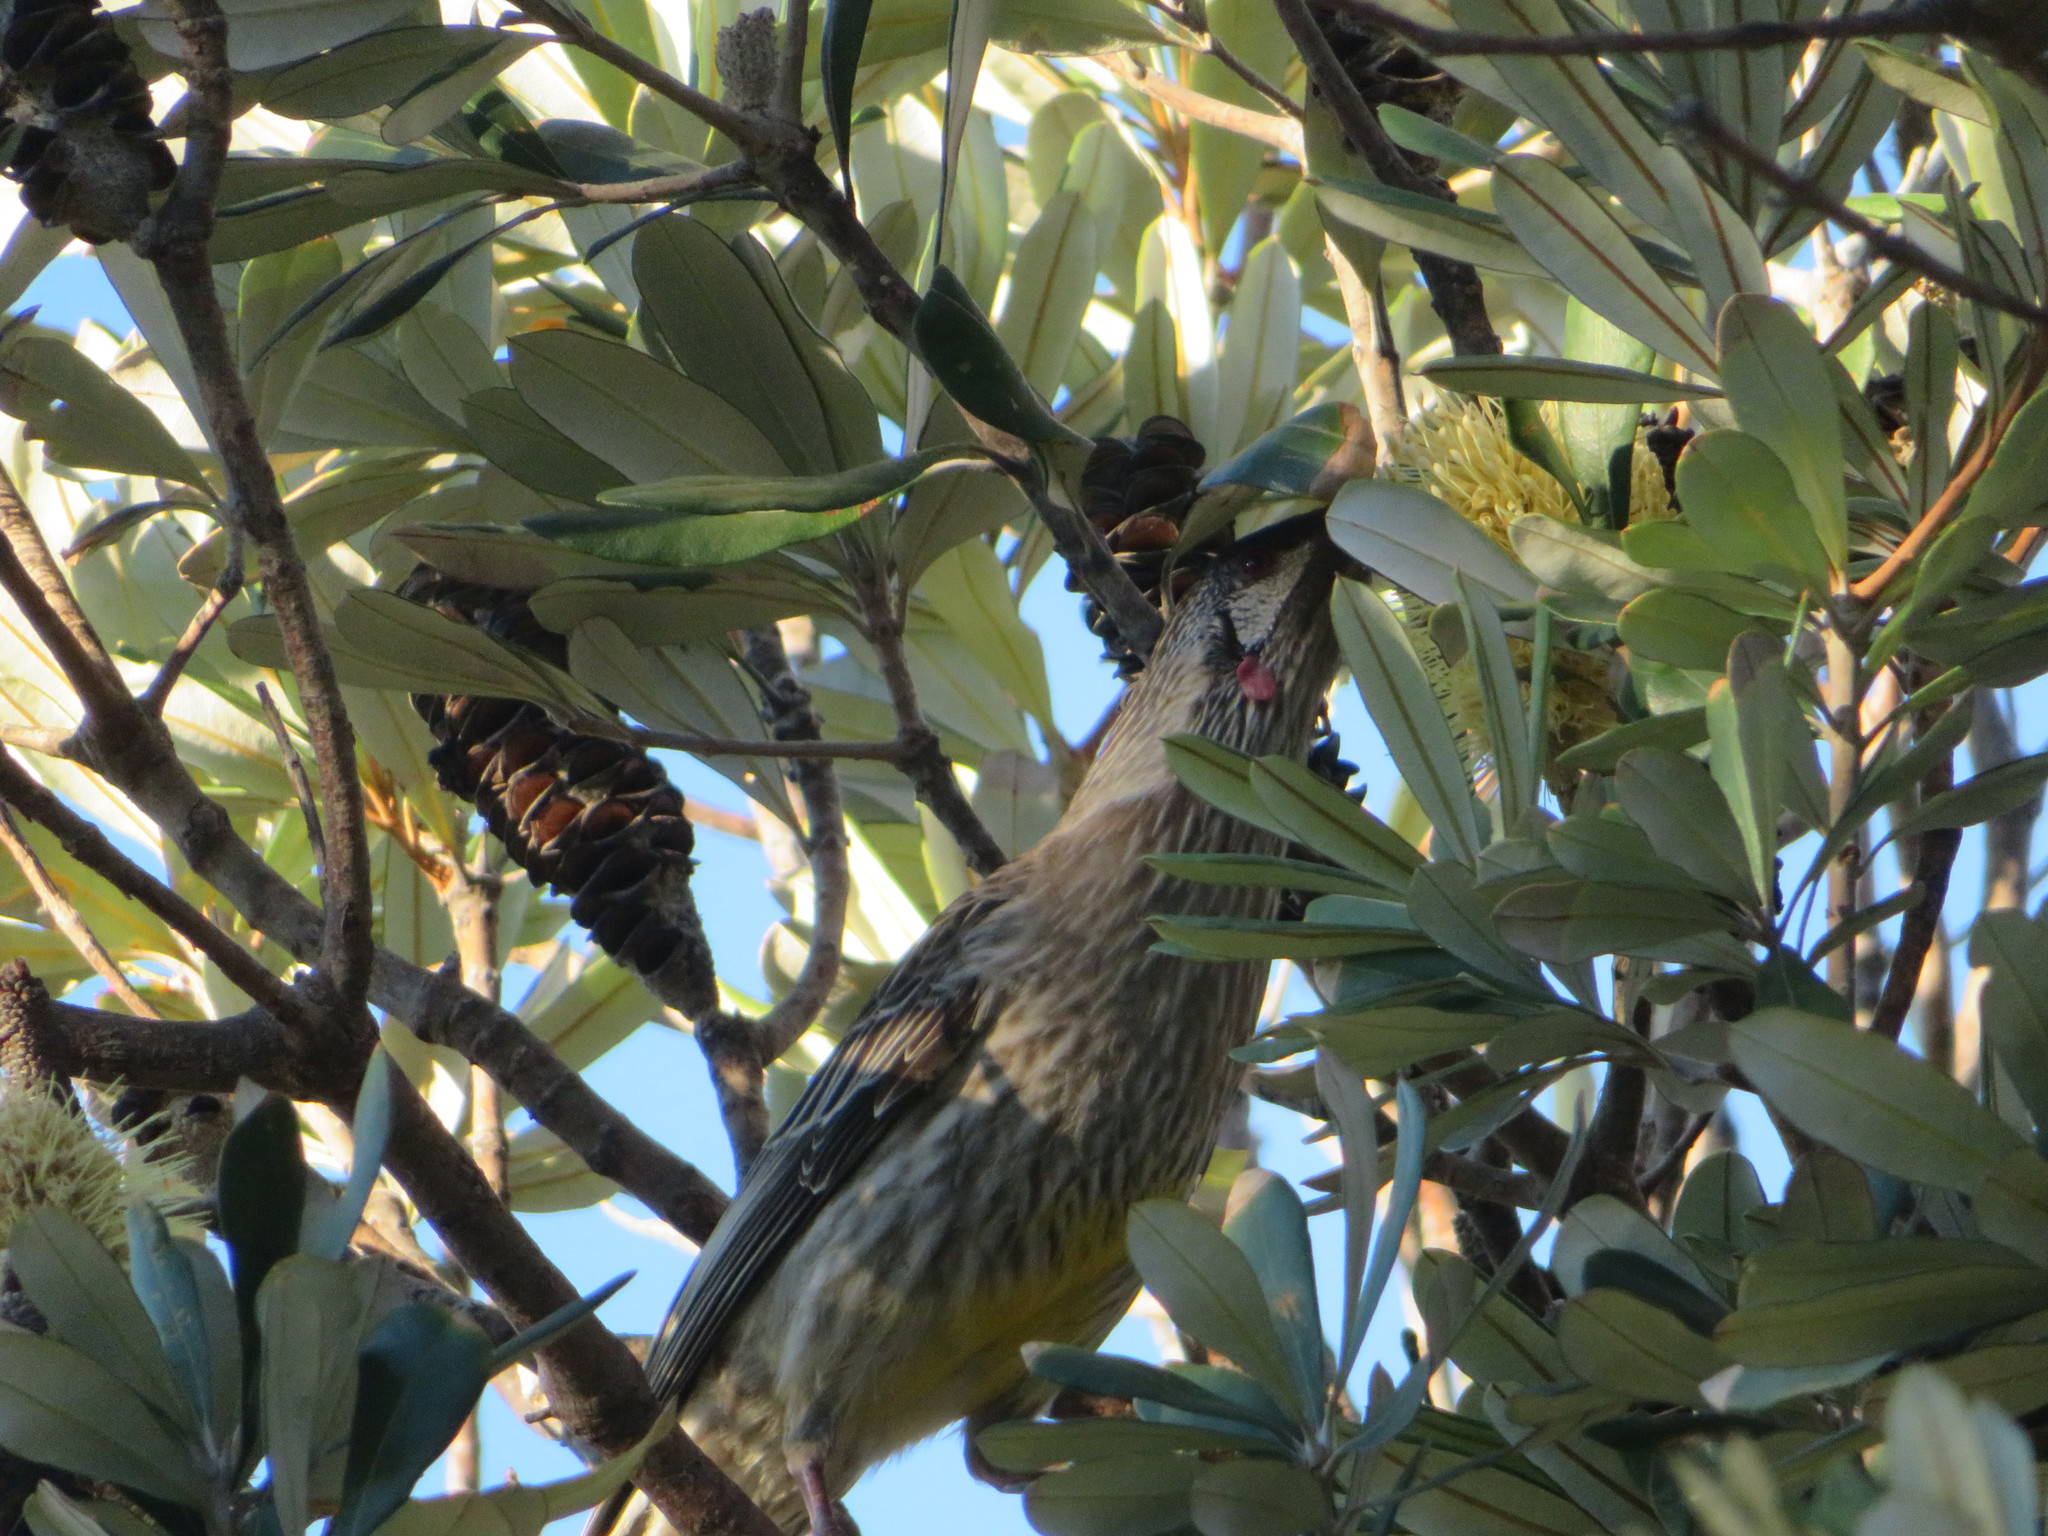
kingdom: Animalia
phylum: Chordata
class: Aves
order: Passeriformes
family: Meliphagidae
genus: Anthochaera
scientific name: Anthochaera carunculata
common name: Red wattlebird
